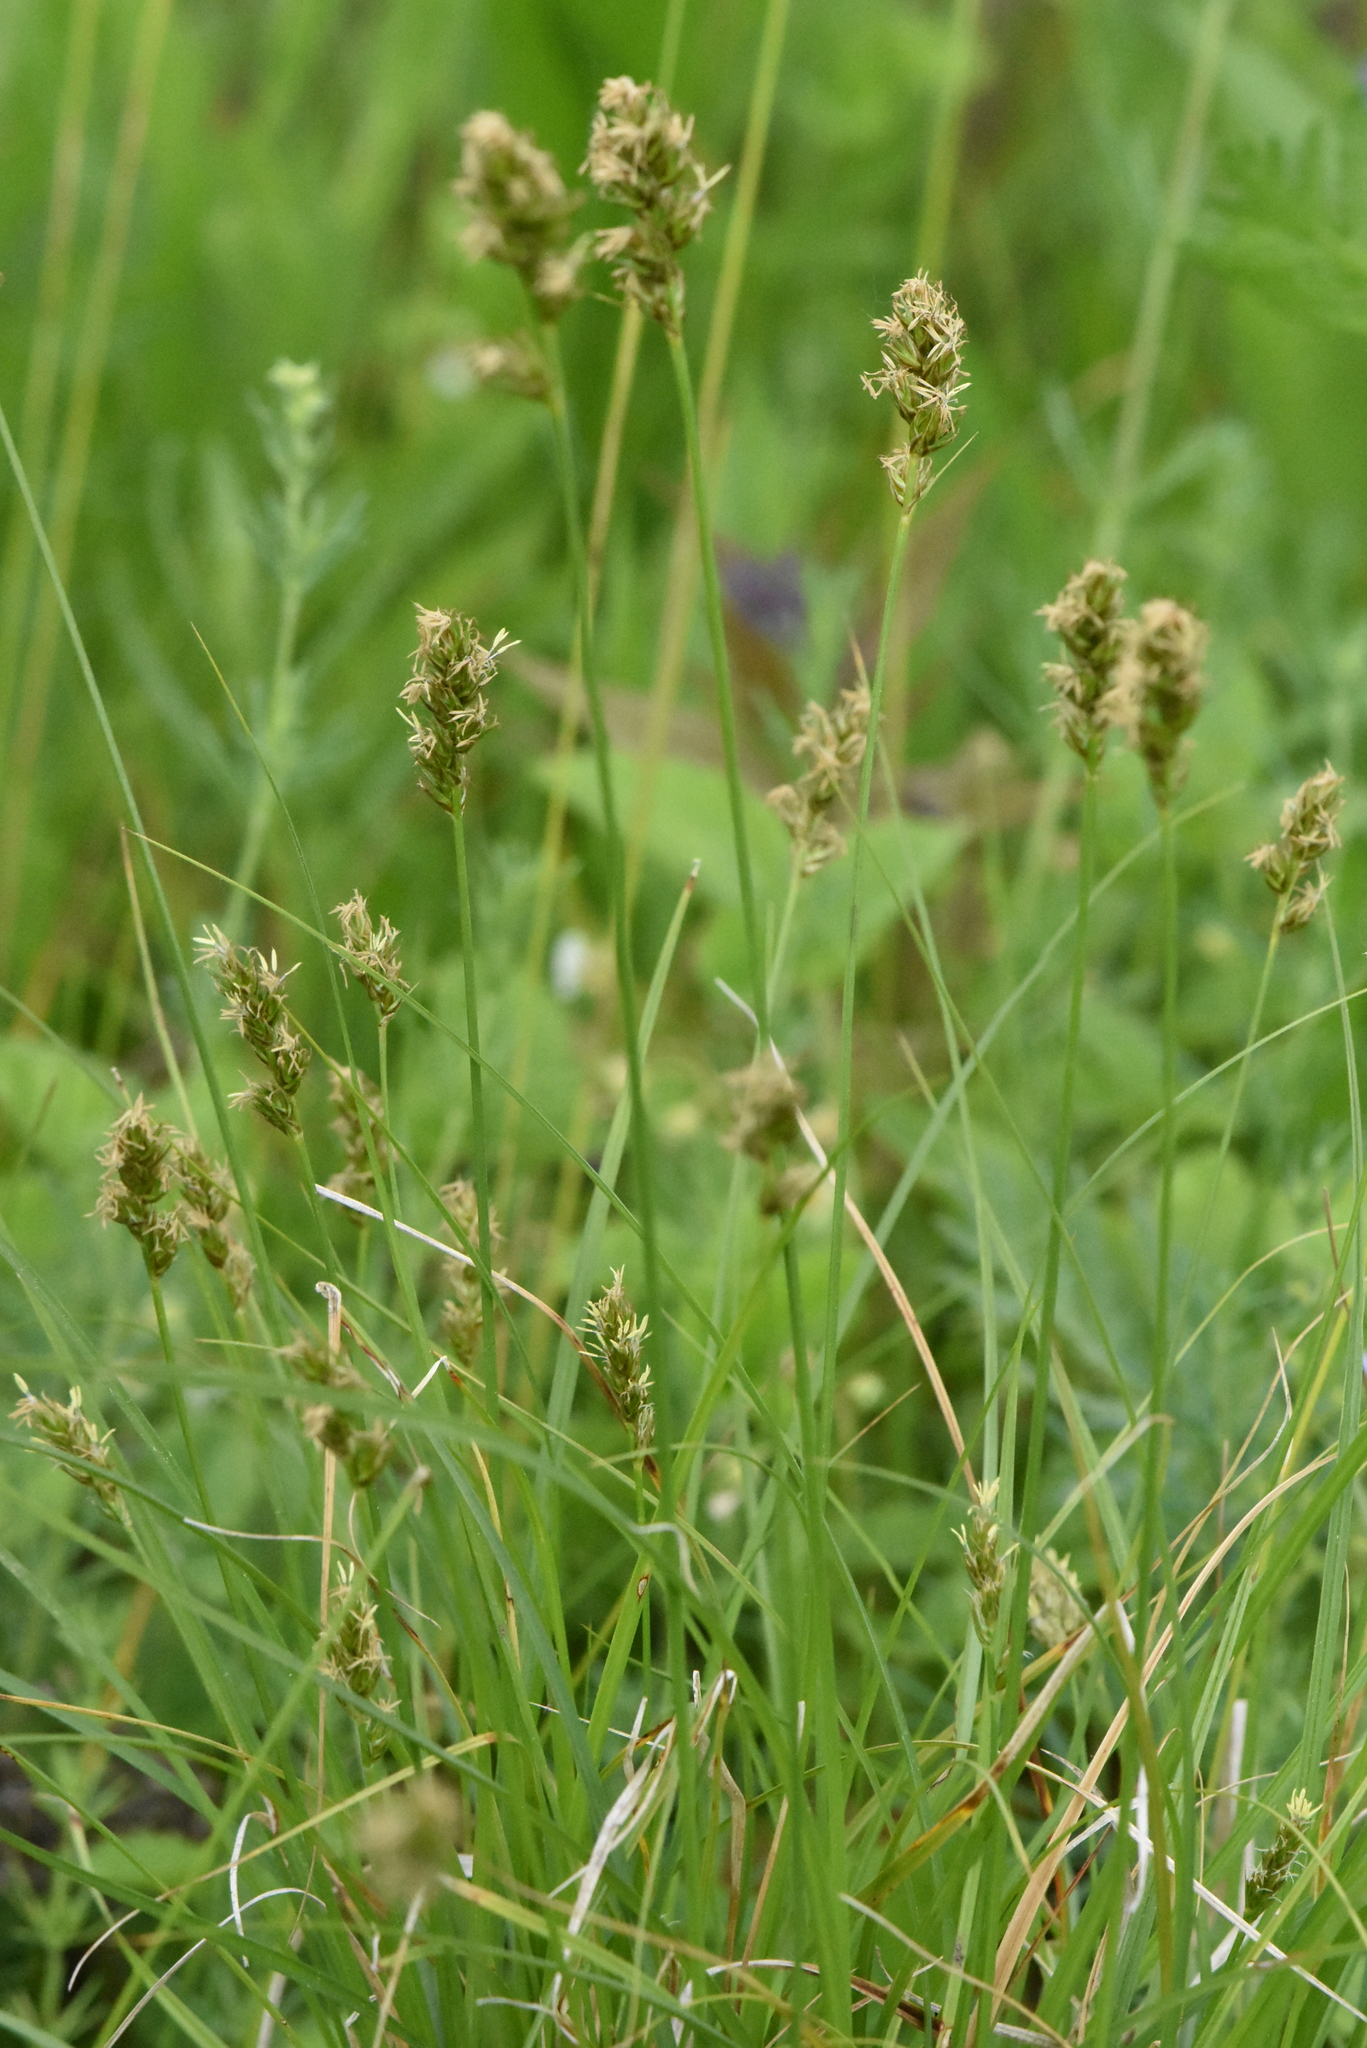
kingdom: Plantae
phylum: Tracheophyta
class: Liliopsida
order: Poales
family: Cyperaceae
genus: Carex
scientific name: Carex spicata
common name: Spiked sedge
